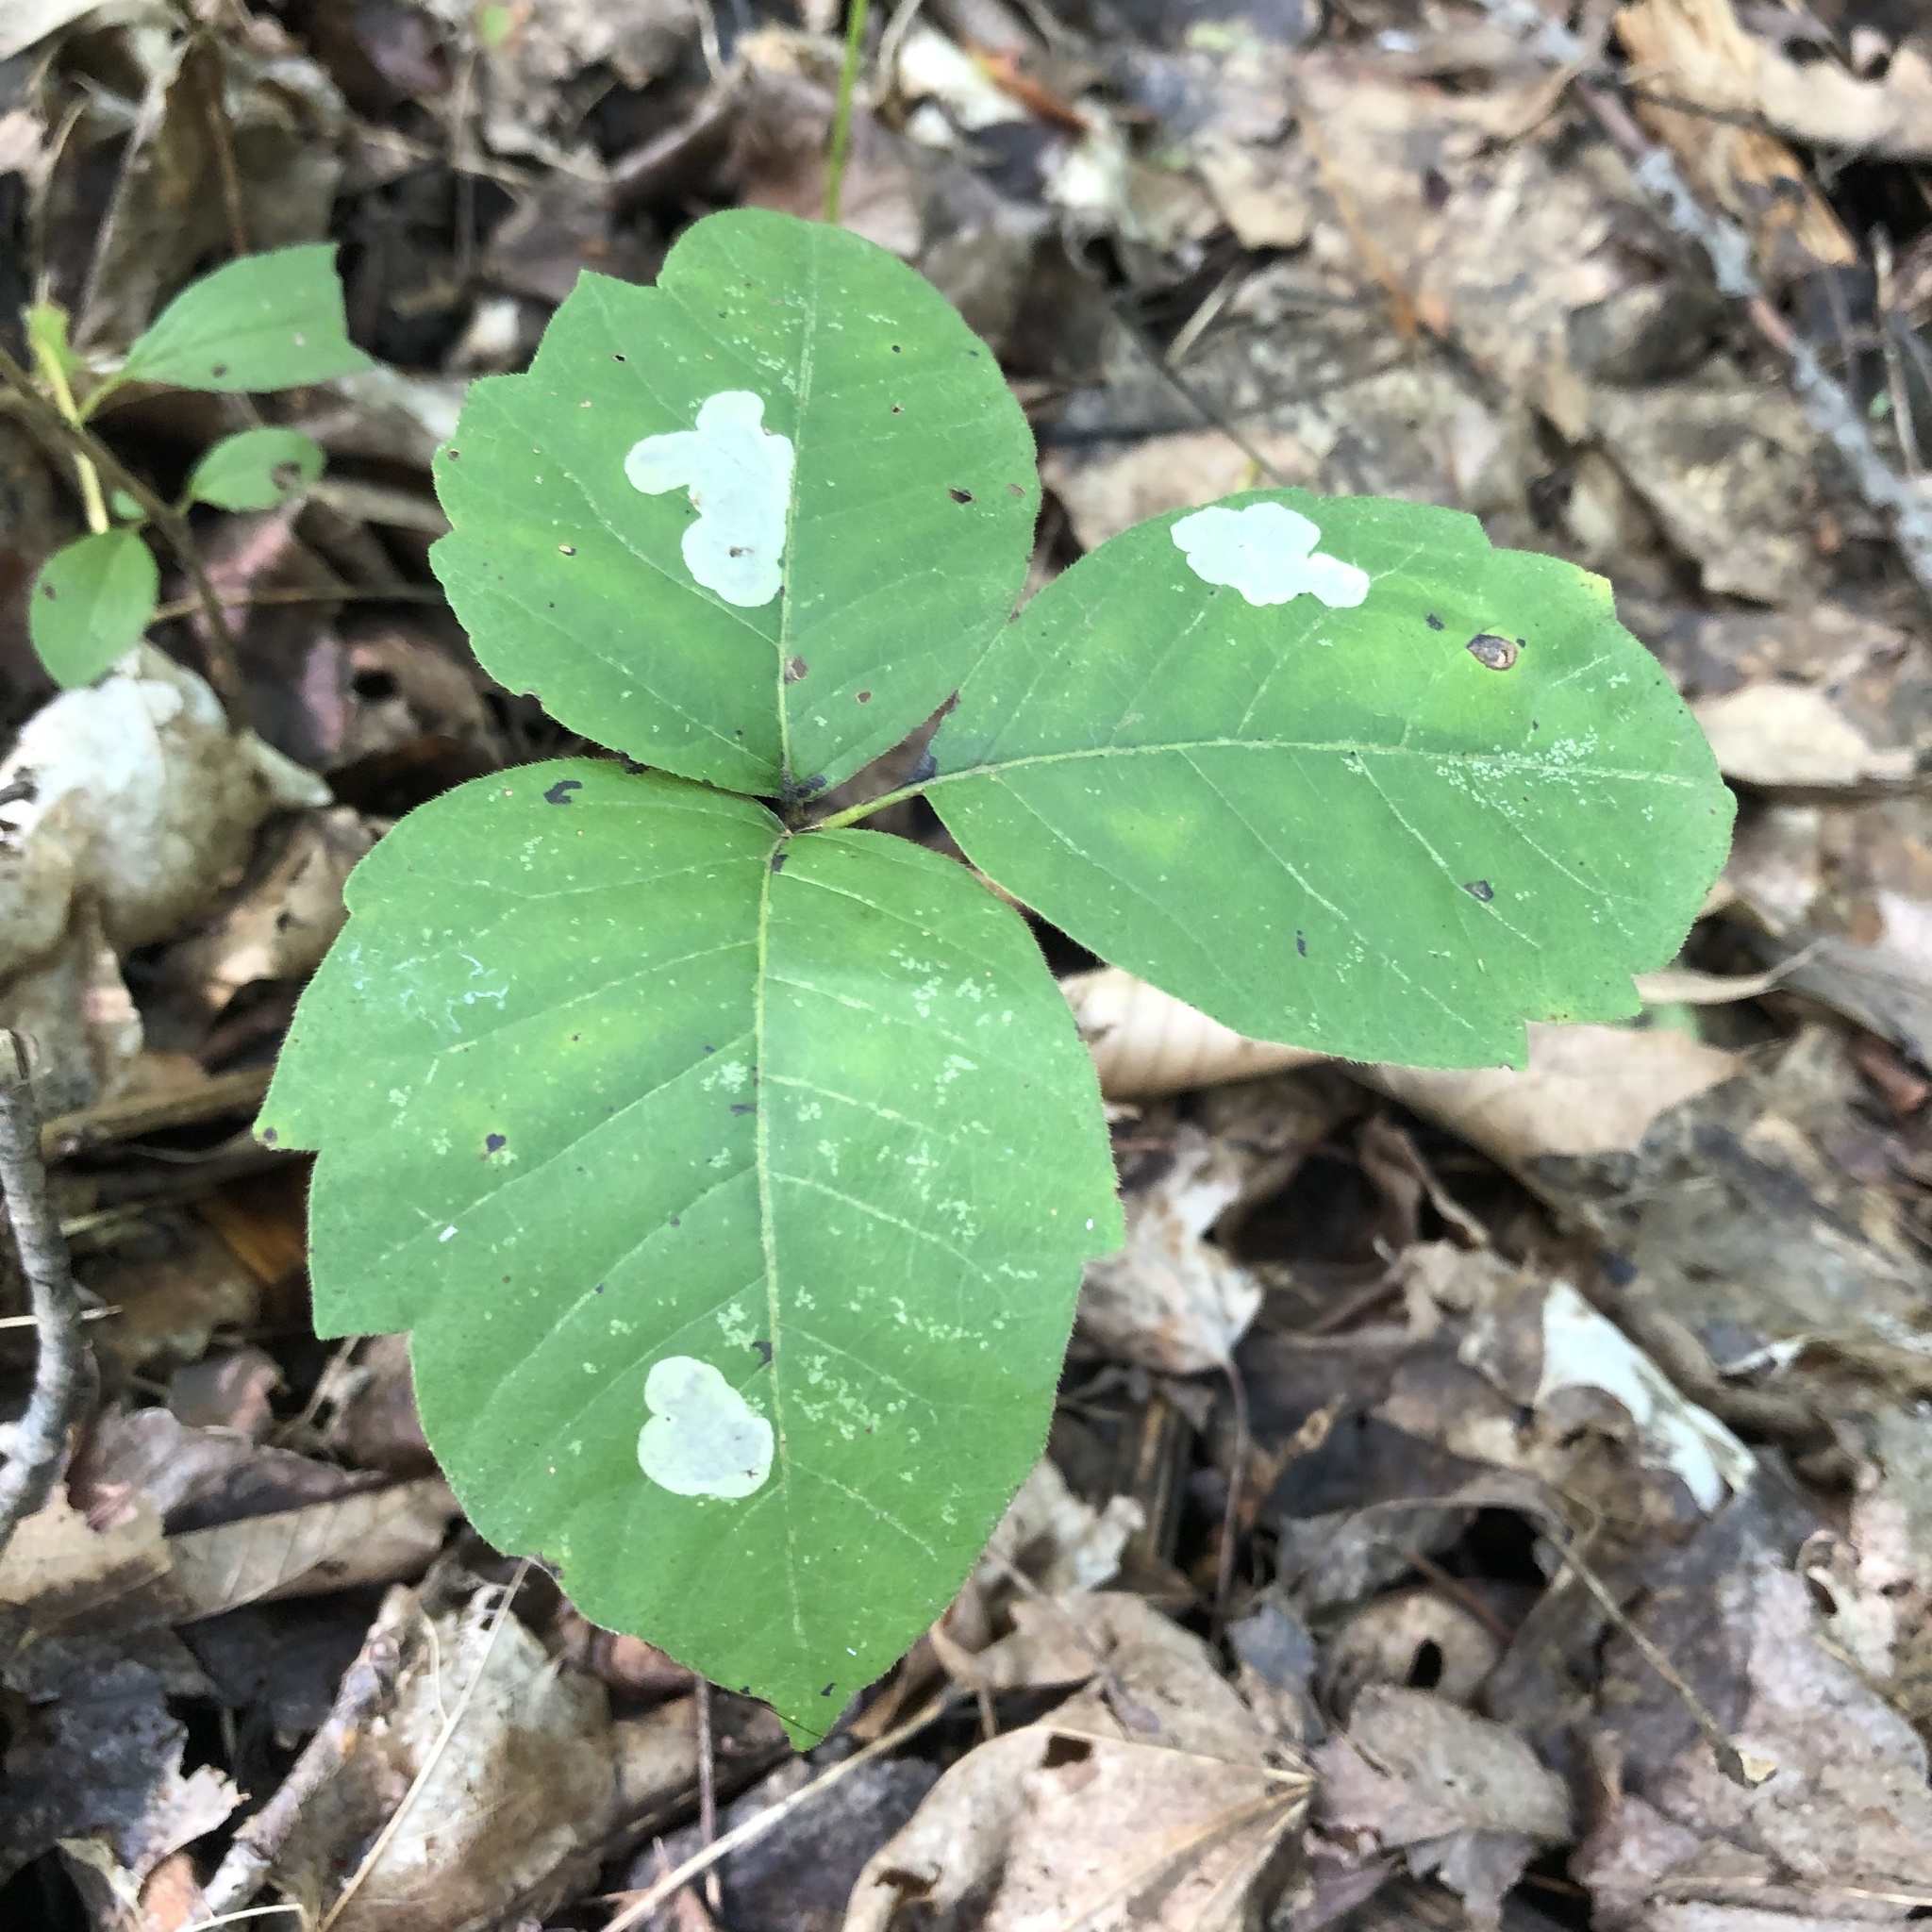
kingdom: Animalia
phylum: Arthropoda
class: Insecta
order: Lepidoptera
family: Gracillariidae
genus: Cameraria
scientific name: Cameraria guttifinitella
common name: Poison ivy leaf-miner moth
